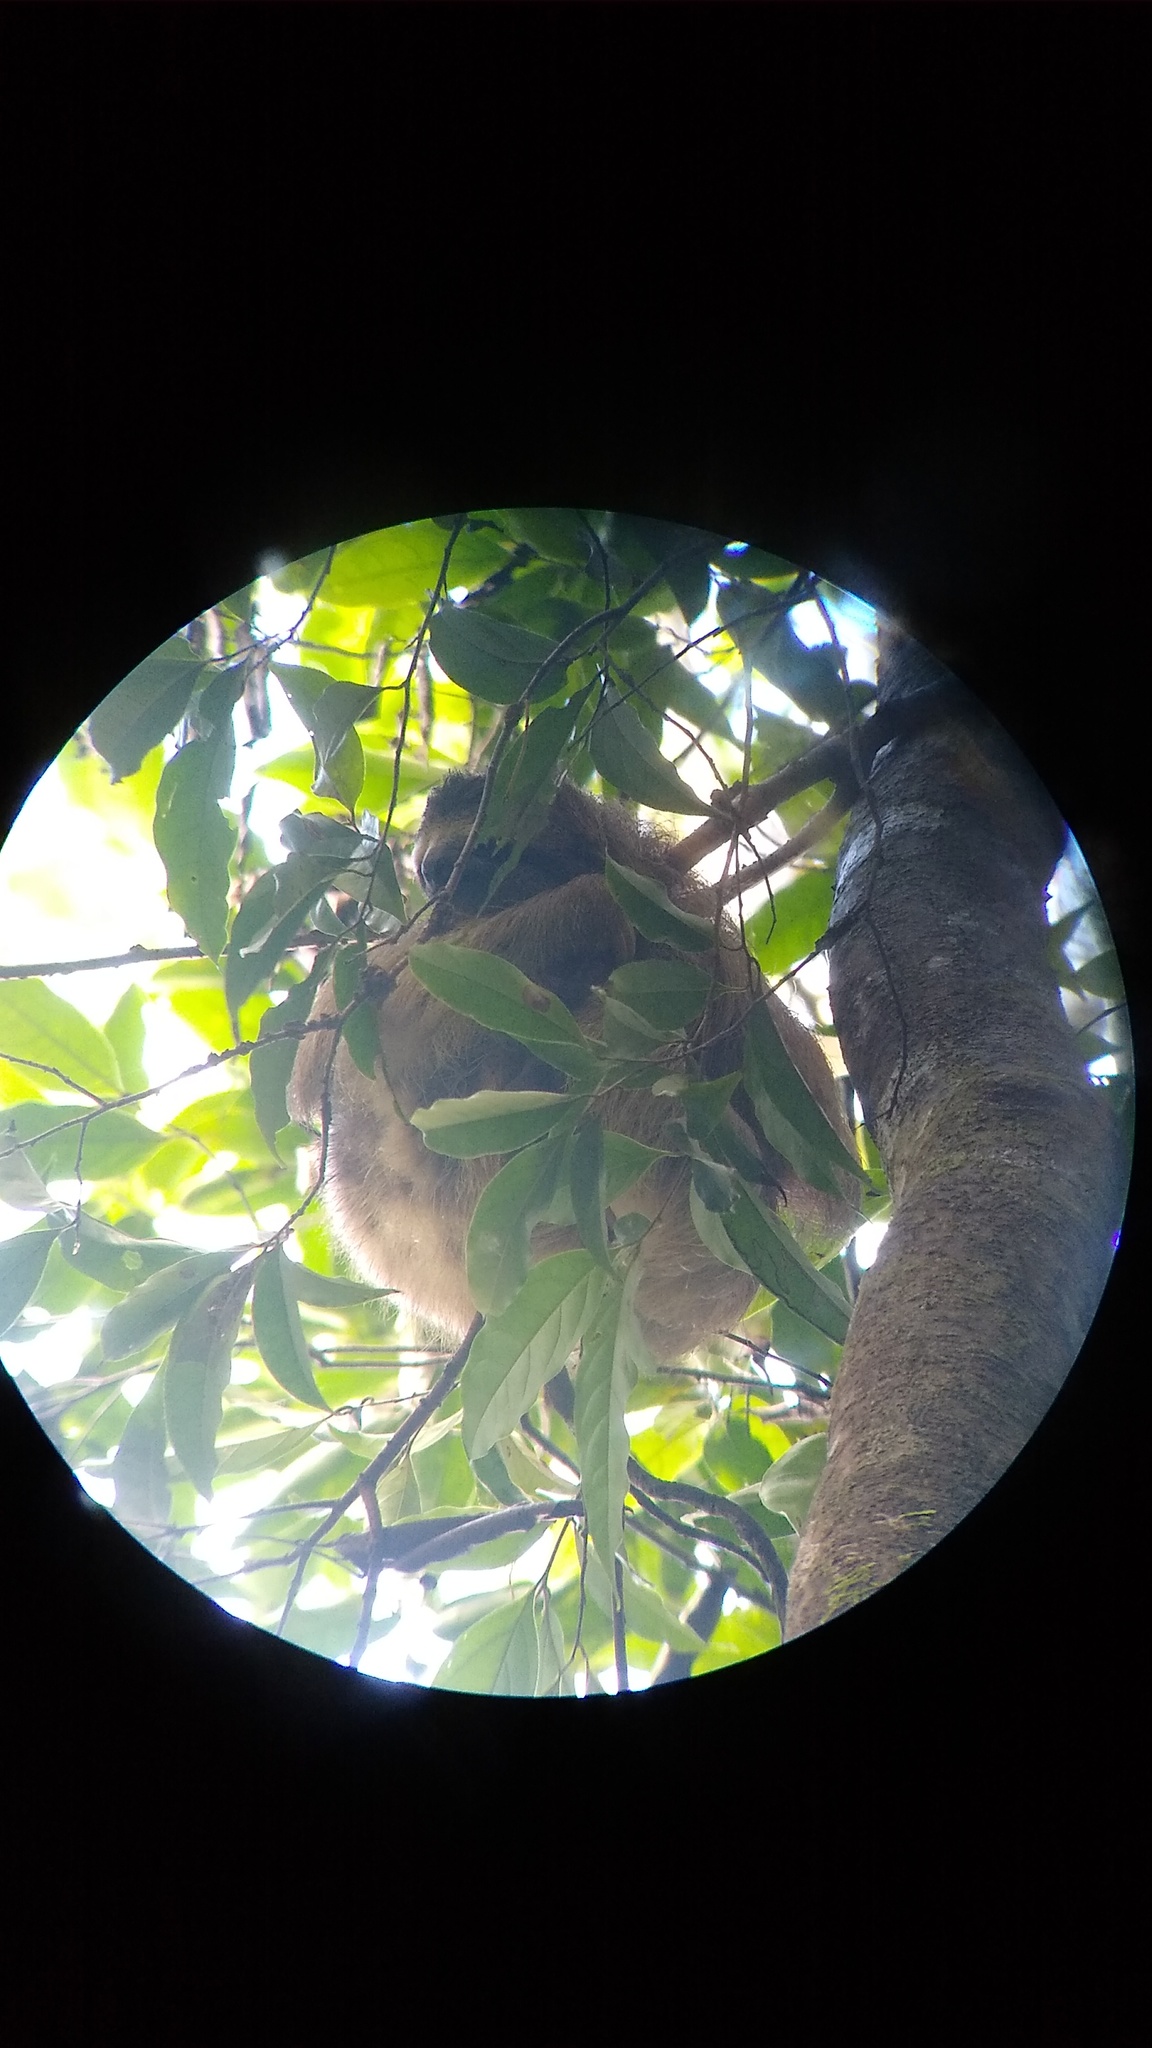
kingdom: Animalia
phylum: Chordata
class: Mammalia
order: Pilosa
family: Bradypodidae
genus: Bradypus
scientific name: Bradypus variegatus
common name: Brown-throated three-toed sloth
